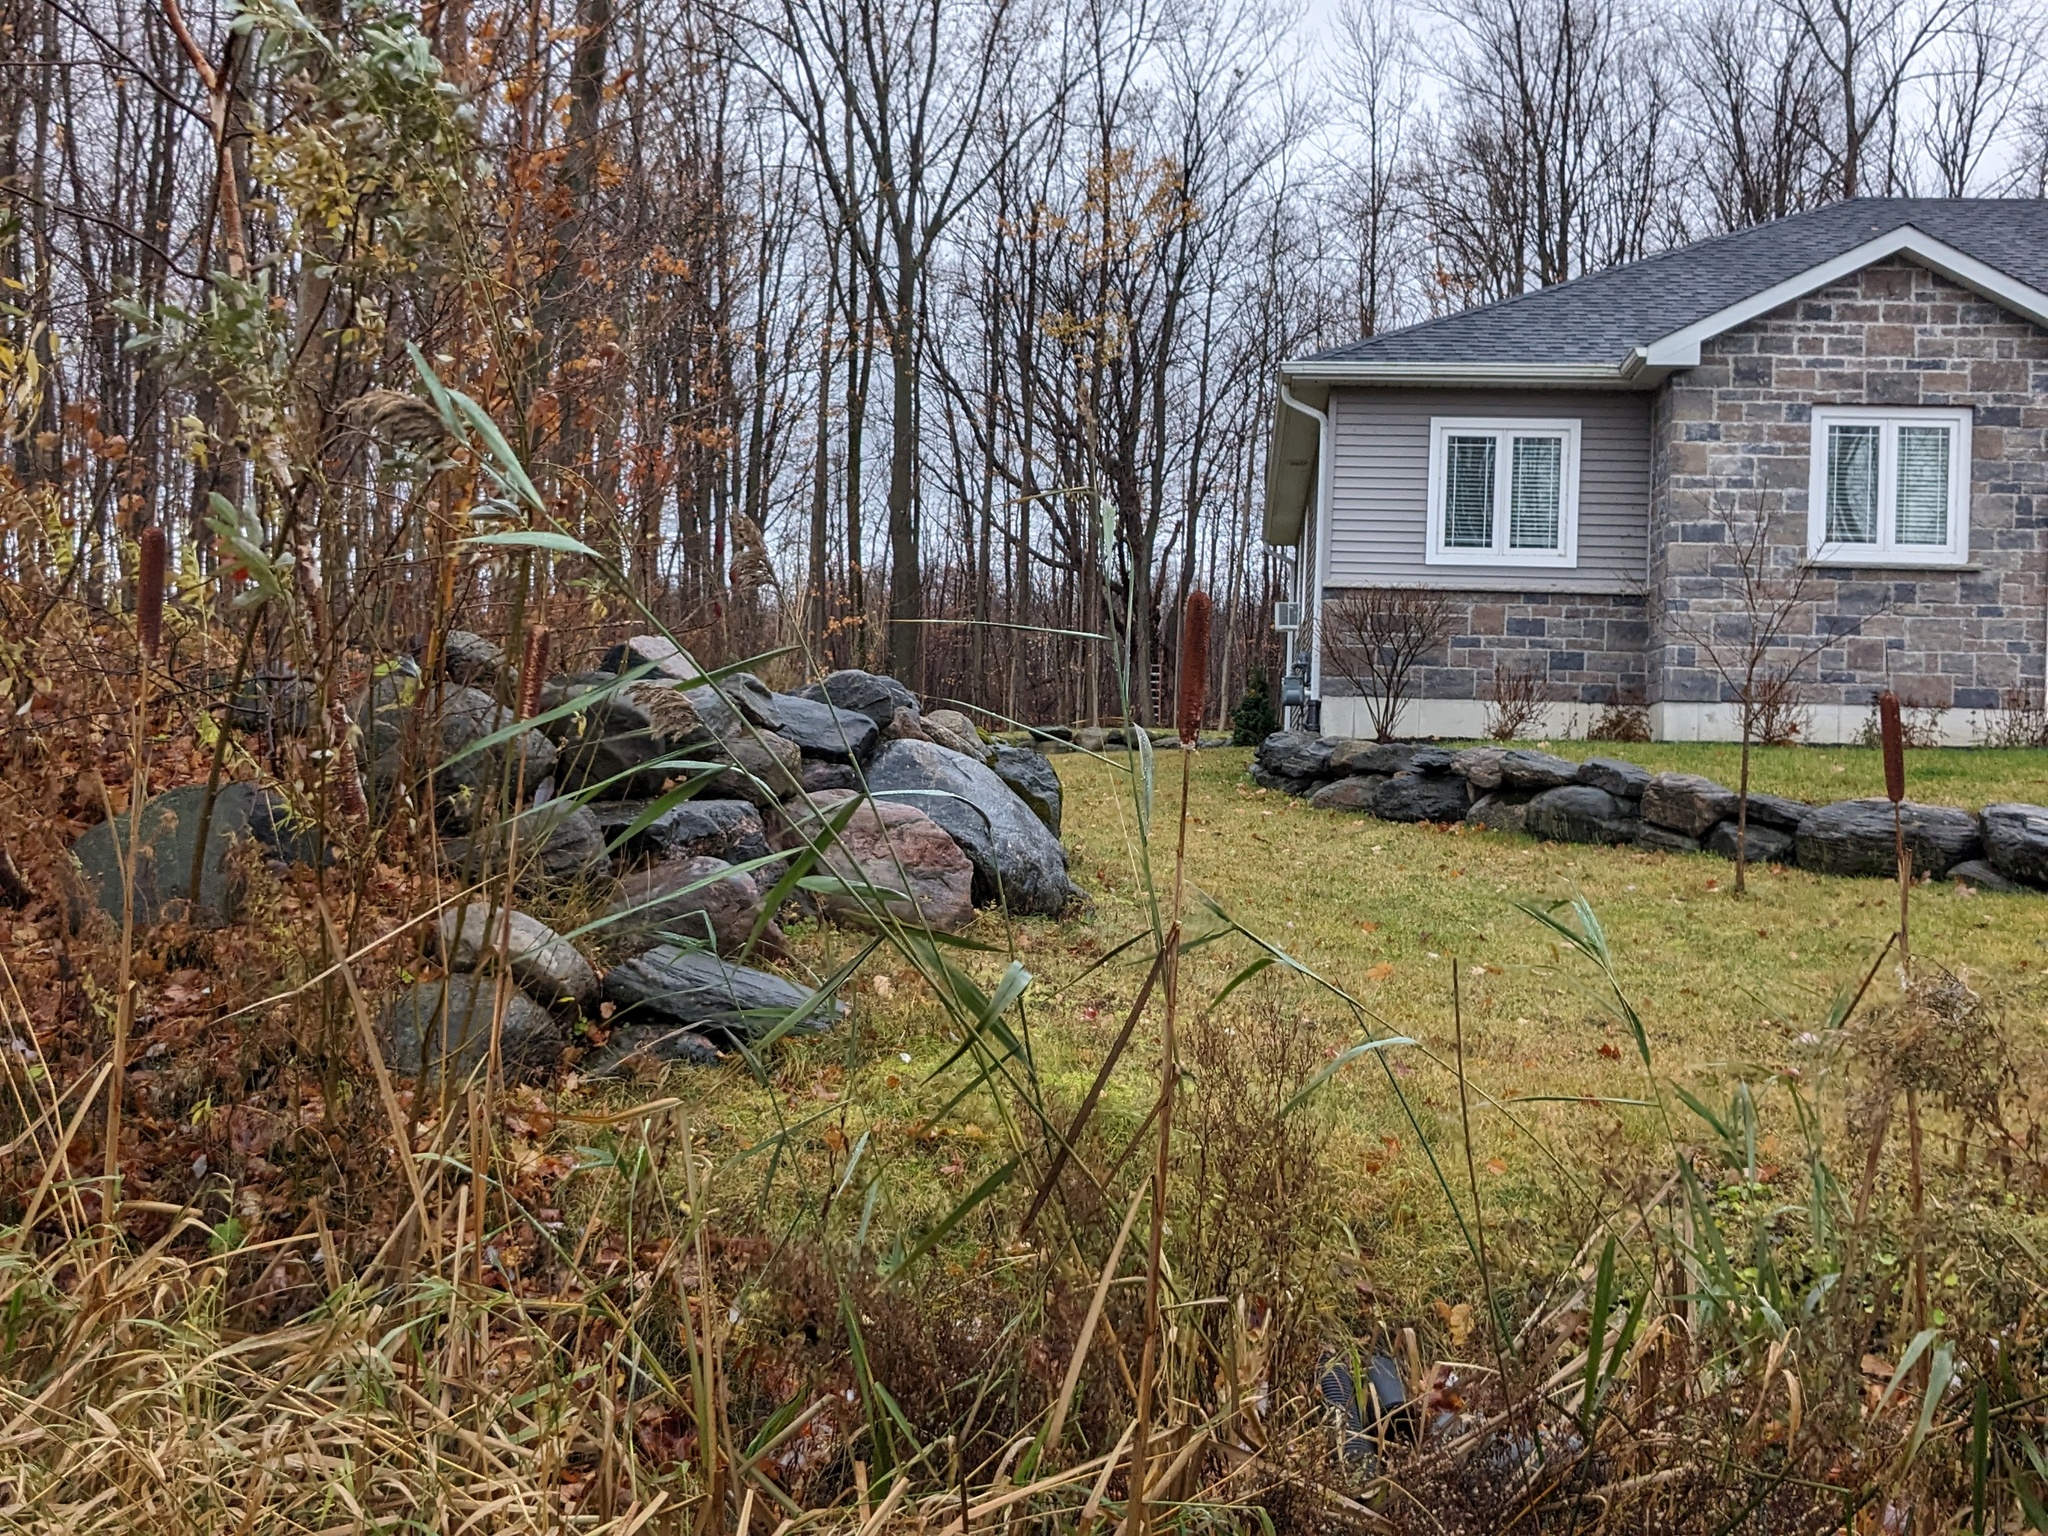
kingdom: Plantae
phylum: Tracheophyta
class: Liliopsida
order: Poales
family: Poaceae
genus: Phragmites
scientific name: Phragmites australis
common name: Common reed
